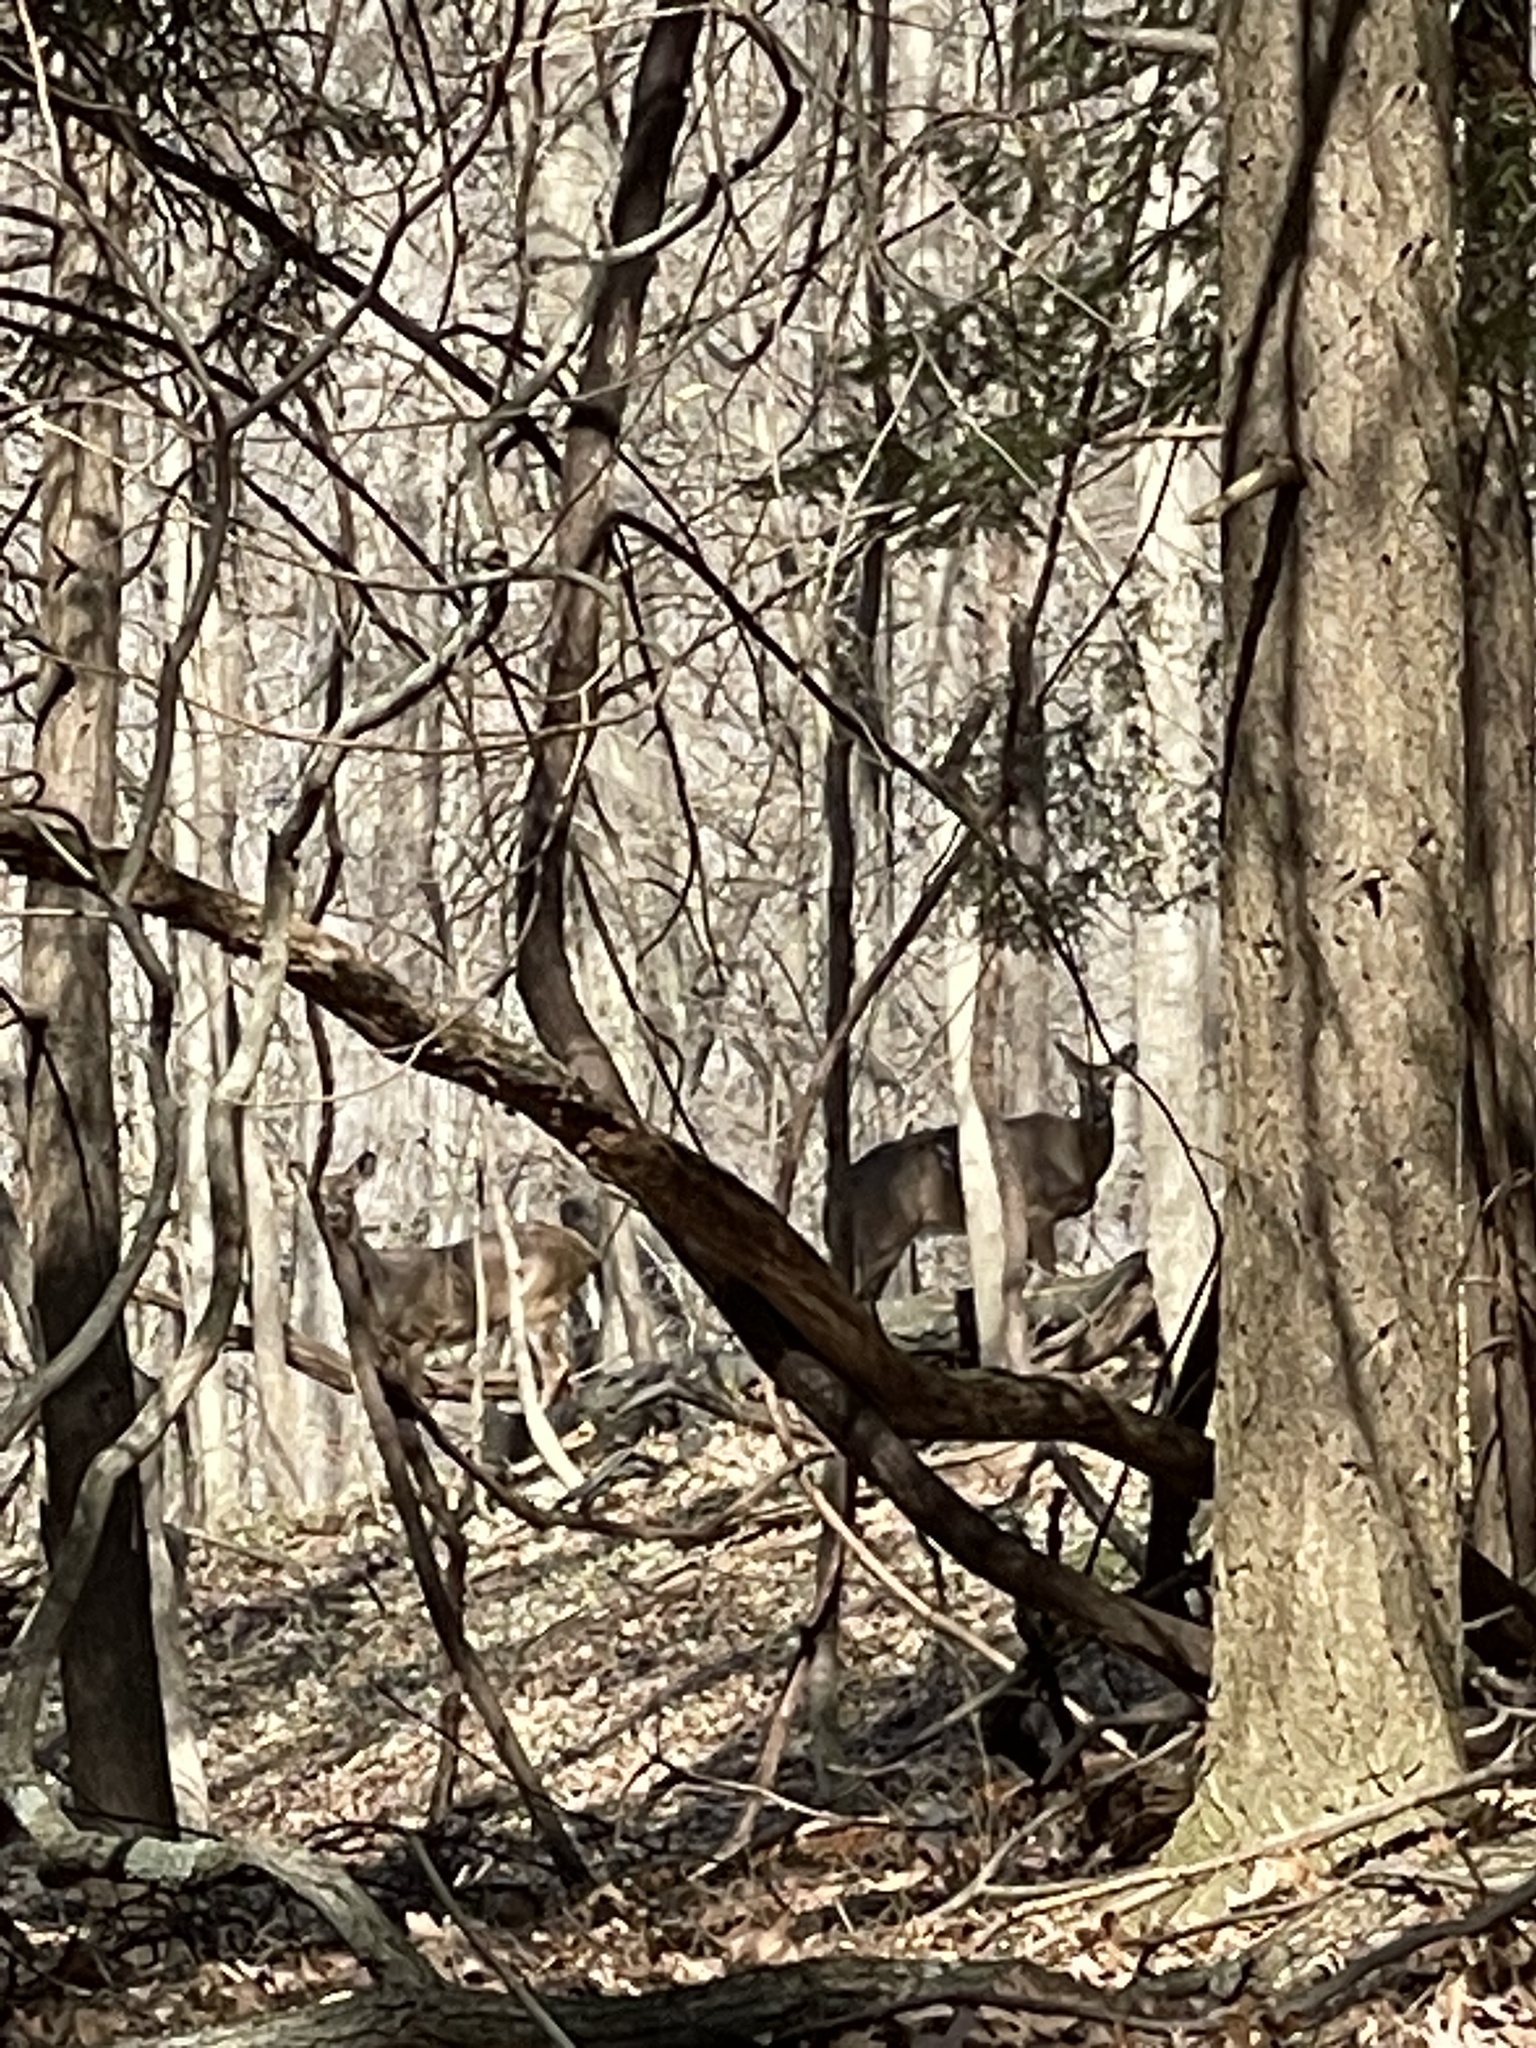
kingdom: Animalia
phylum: Chordata
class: Mammalia
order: Artiodactyla
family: Cervidae
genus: Odocoileus
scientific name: Odocoileus virginianus
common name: White-tailed deer
